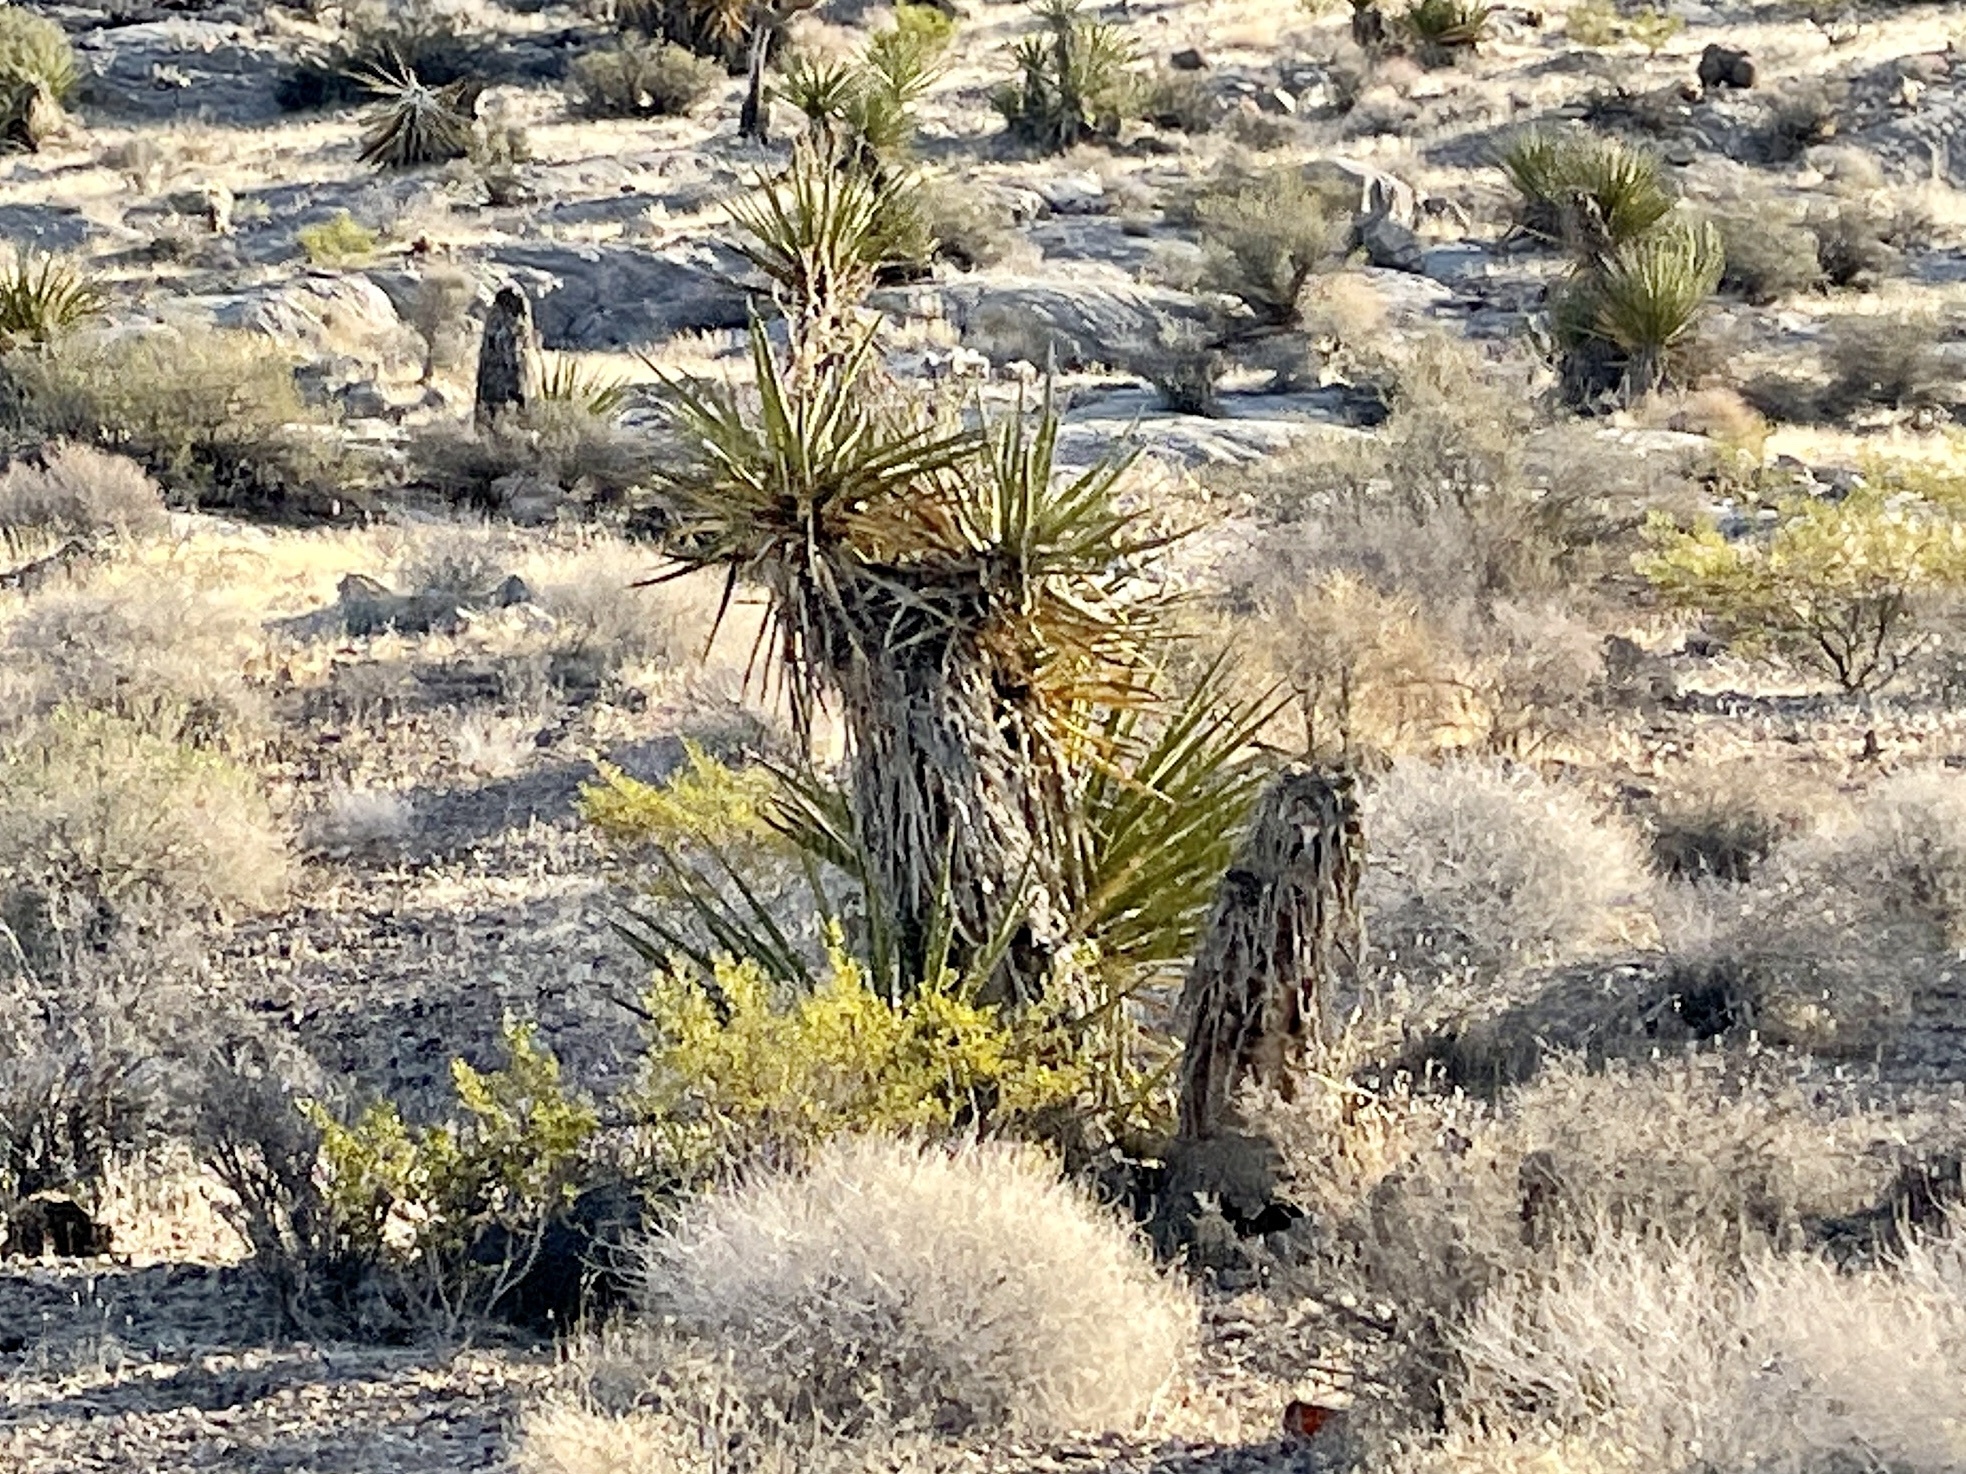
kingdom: Plantae
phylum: Tracheophyta
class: Liliopsida
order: Asparagales
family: Asparagaceae
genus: Yucca
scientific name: Yucca schidigera
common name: Mojave yucca
